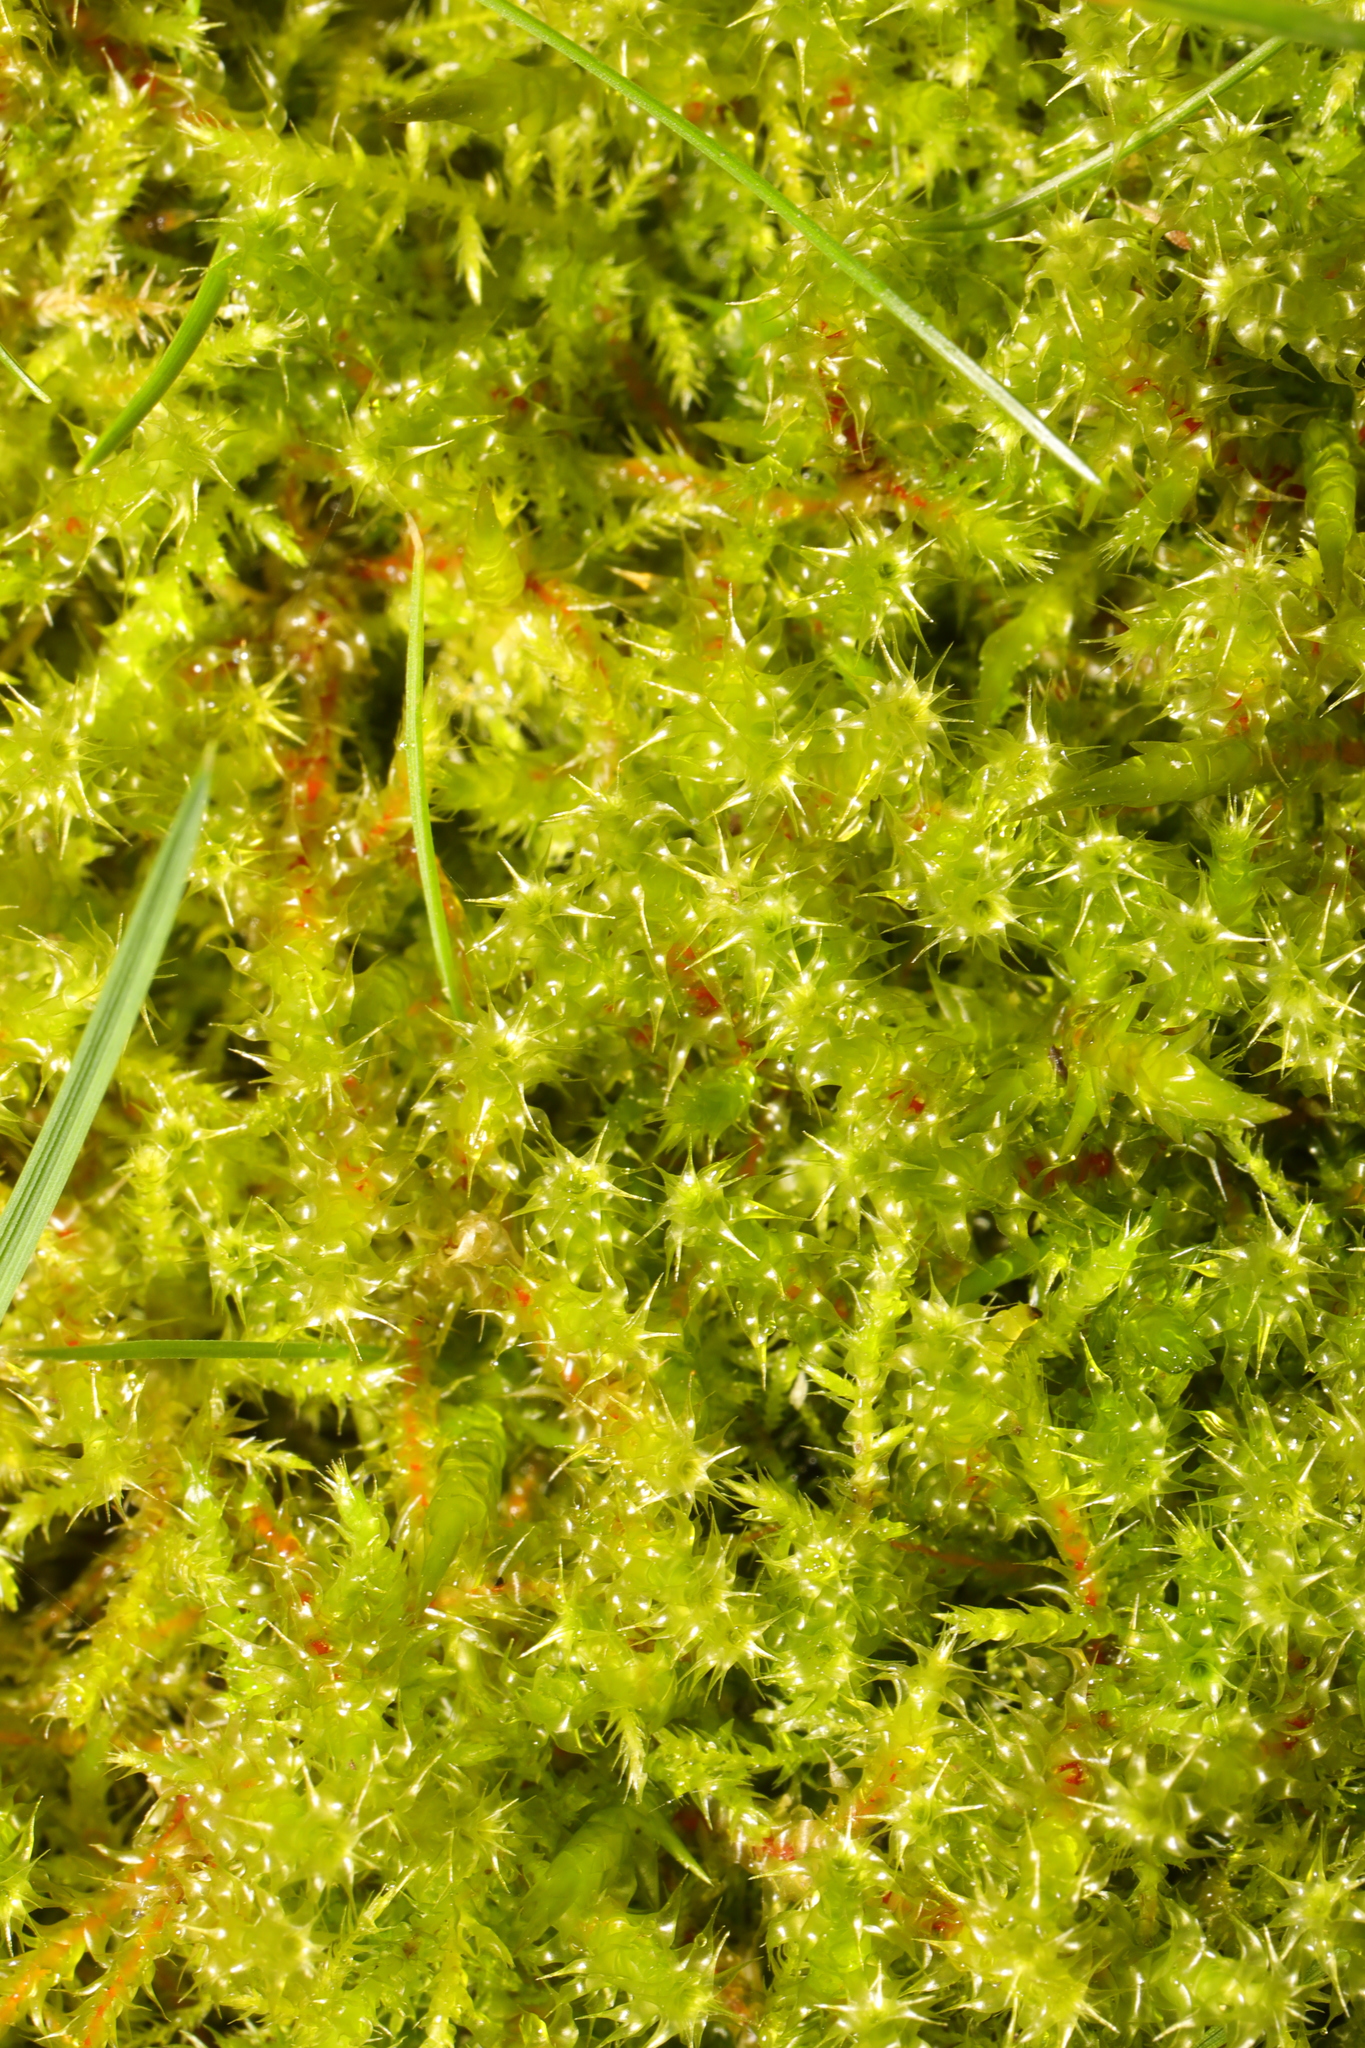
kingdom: Plantae
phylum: Bryophyta
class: Bryopsida
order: Hypnales
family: Hylocomiaceae
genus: Rhytidiadelphus
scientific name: Rhytidiadelphus squarrosus
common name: Springy turf-moss
